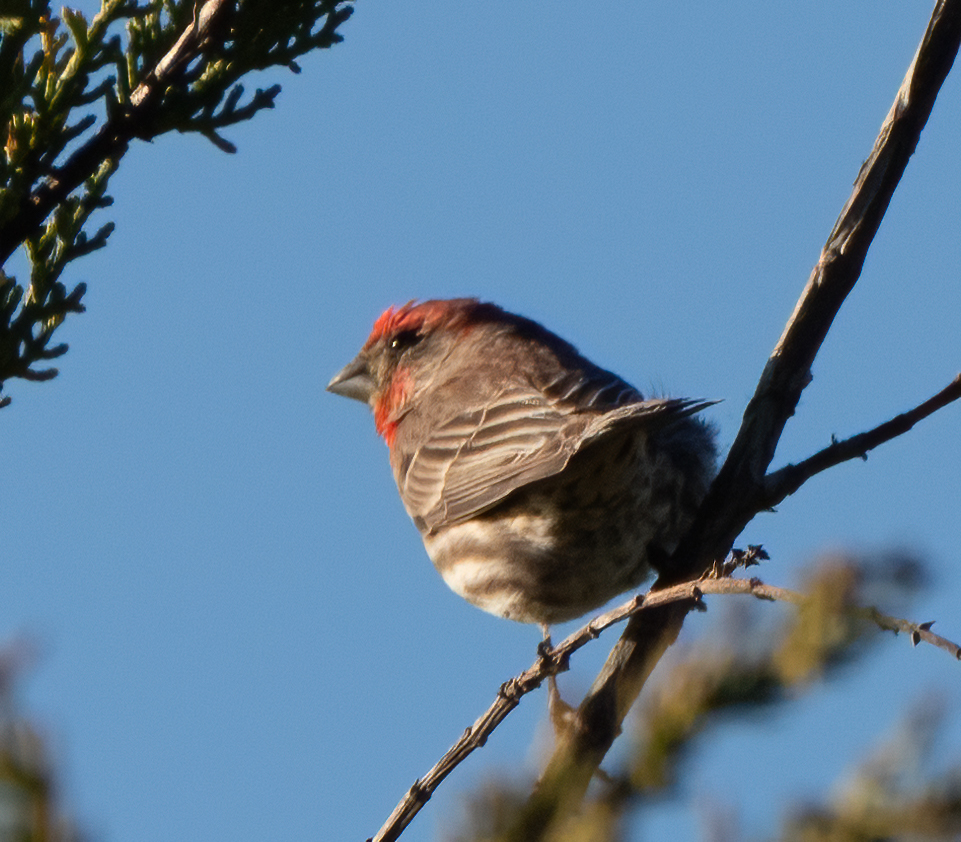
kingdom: Animalia
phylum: Chordata
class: Aves
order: Passeriformes
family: Fringillidae
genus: Haemorhous
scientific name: Haemorhous mexicanus
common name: House finch
